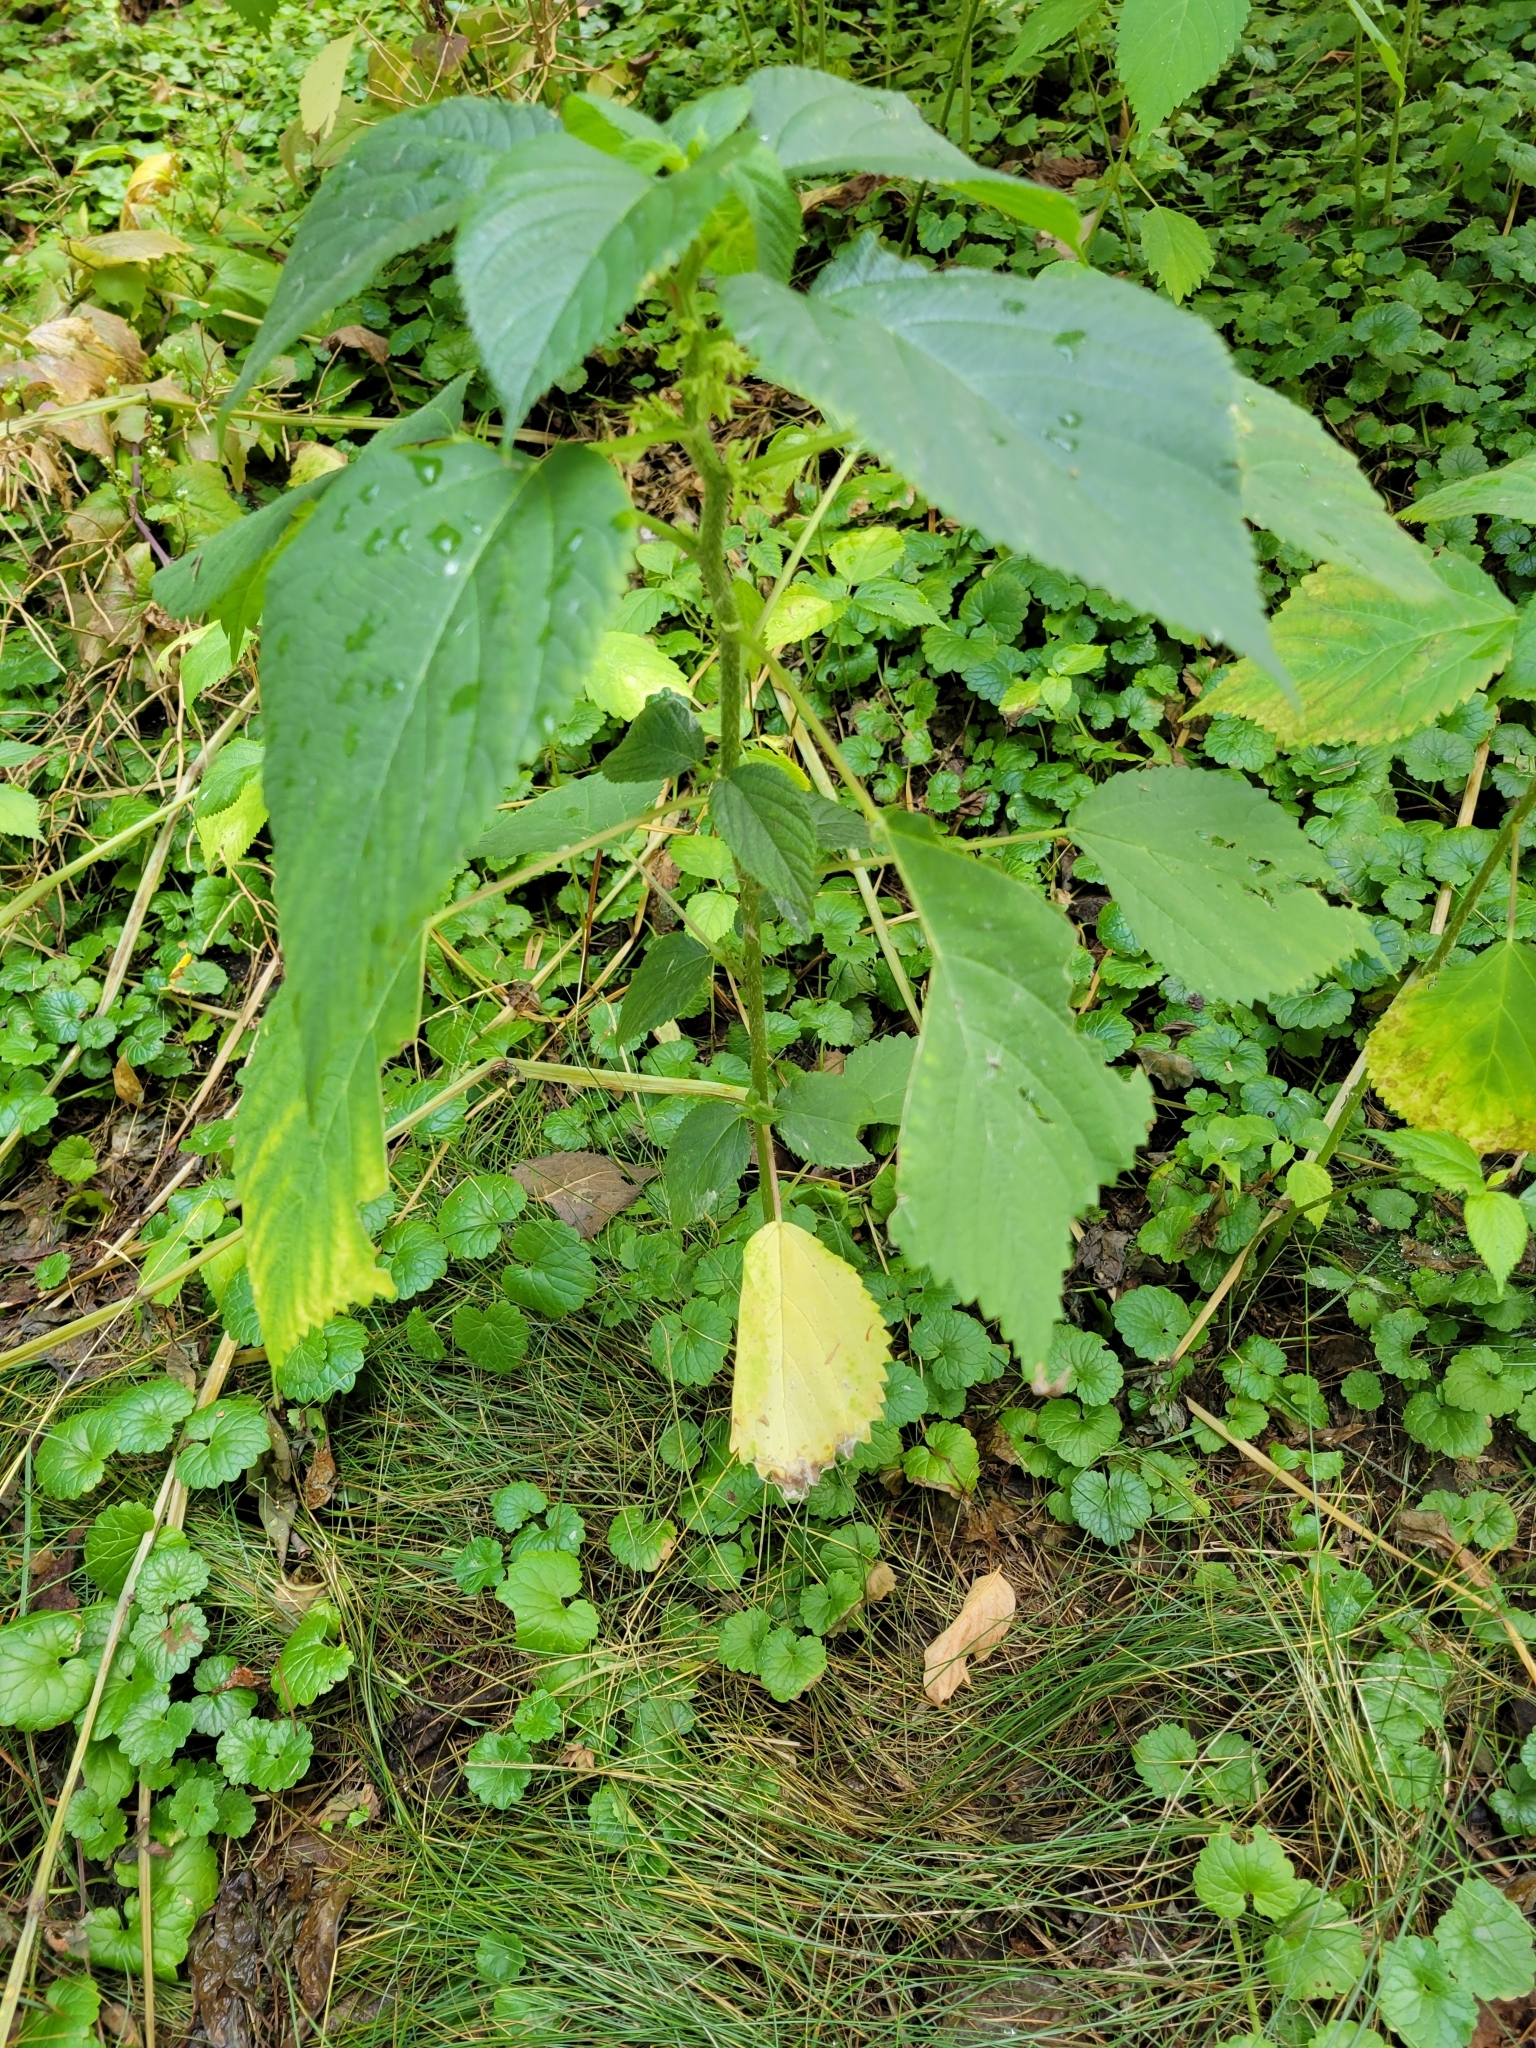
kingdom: Plantae
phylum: Tracheophyta
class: Magnoliopsida
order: Rosales
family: Urticaceae
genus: Laportea
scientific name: Laportea canadensis
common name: Canada nettle
